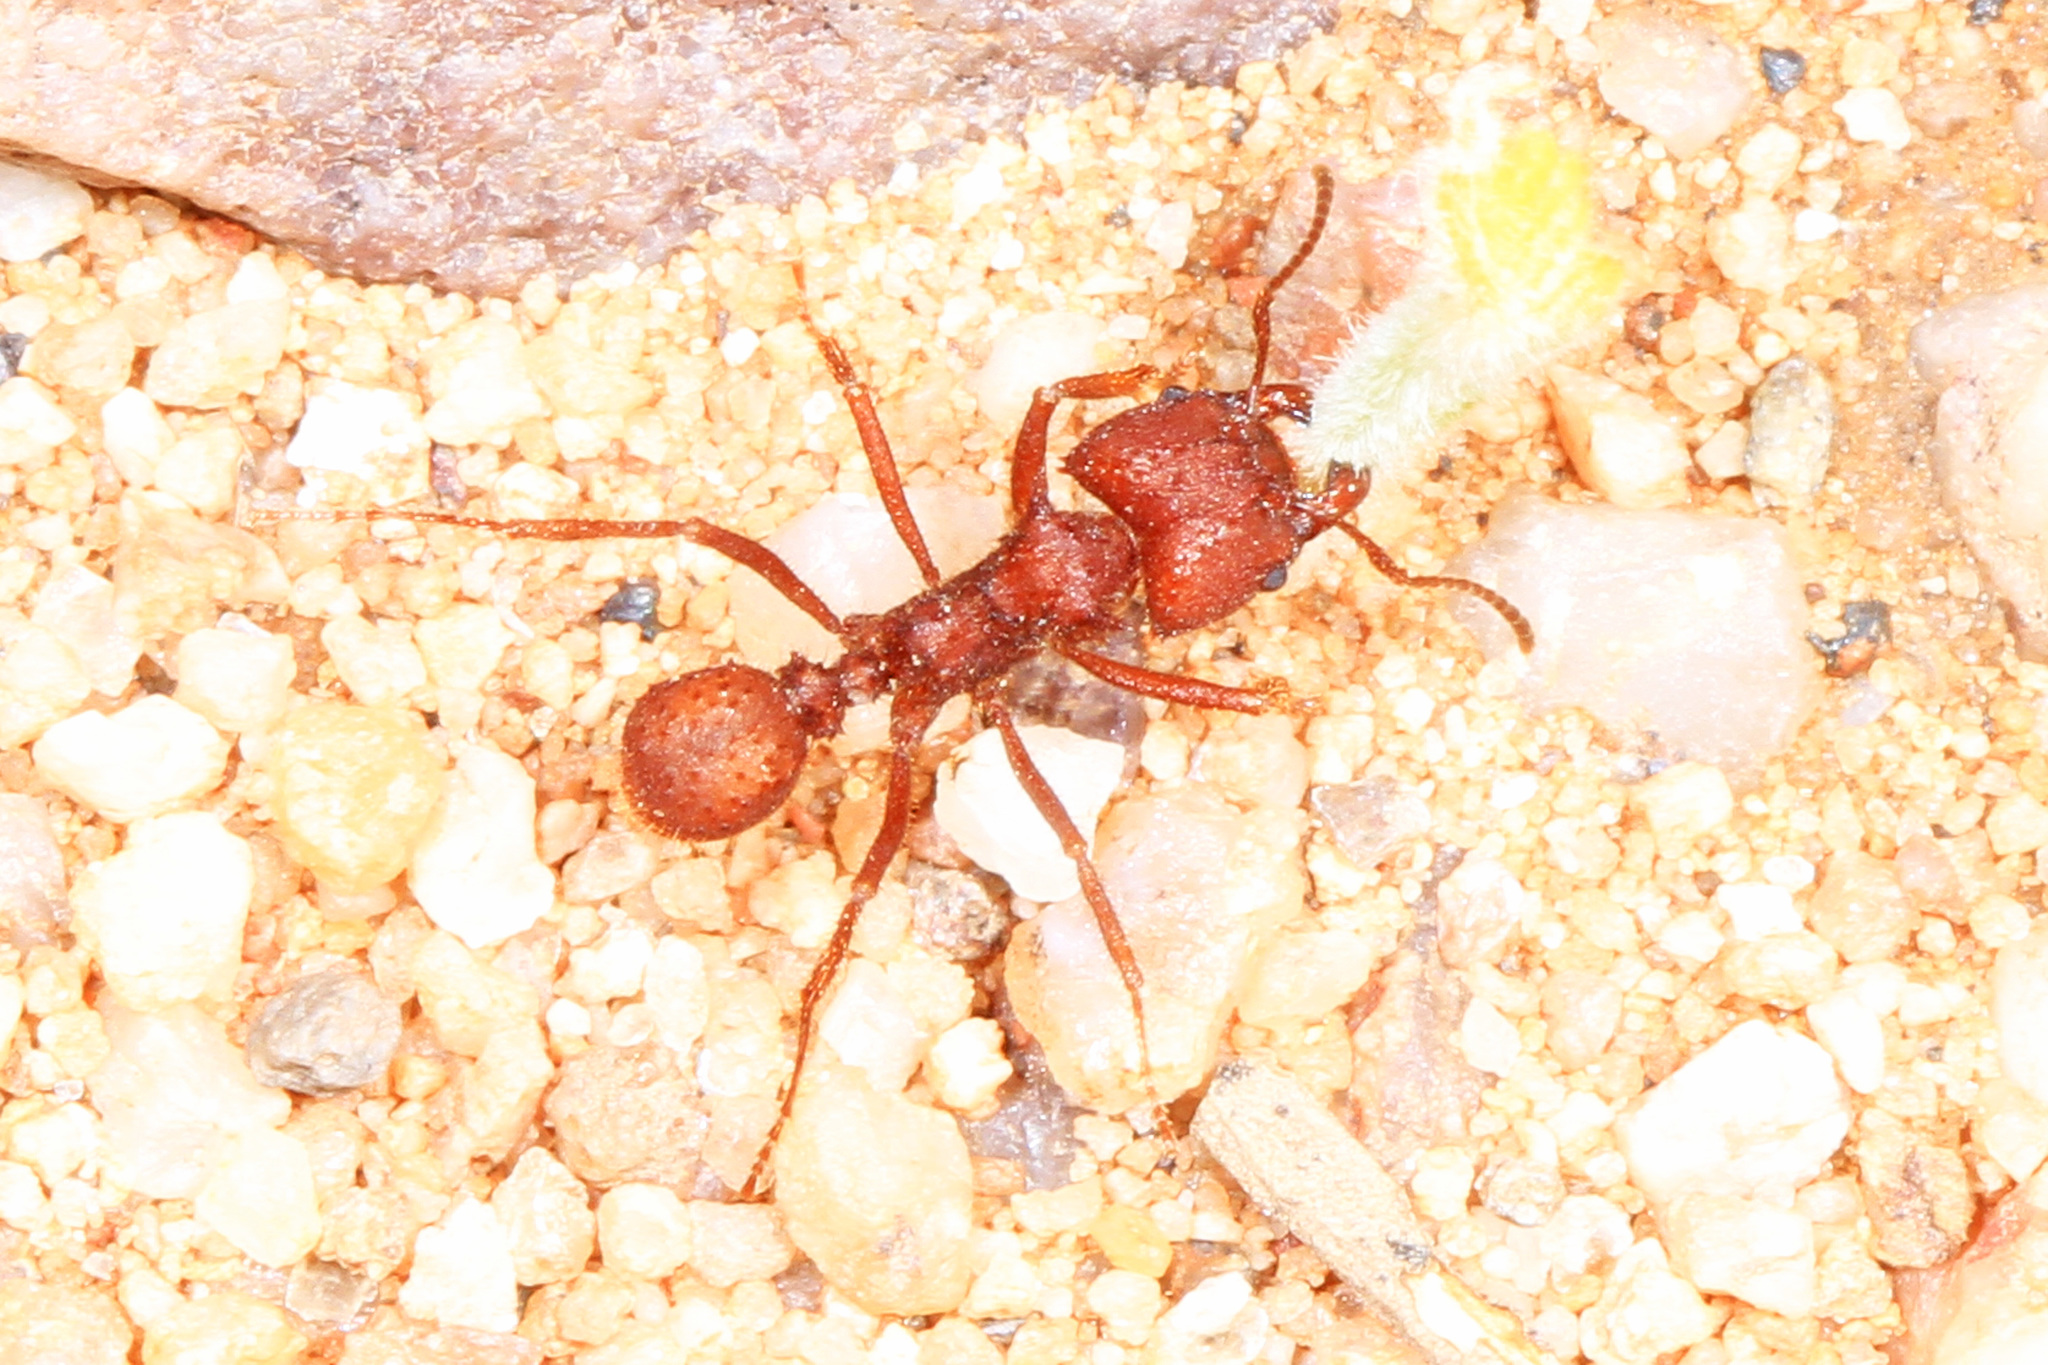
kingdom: Animalia
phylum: Arthropoda
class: Insecta
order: Hymenoptera
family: Formicidae
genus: Acromyrmex
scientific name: Acromyrmex versicolor
